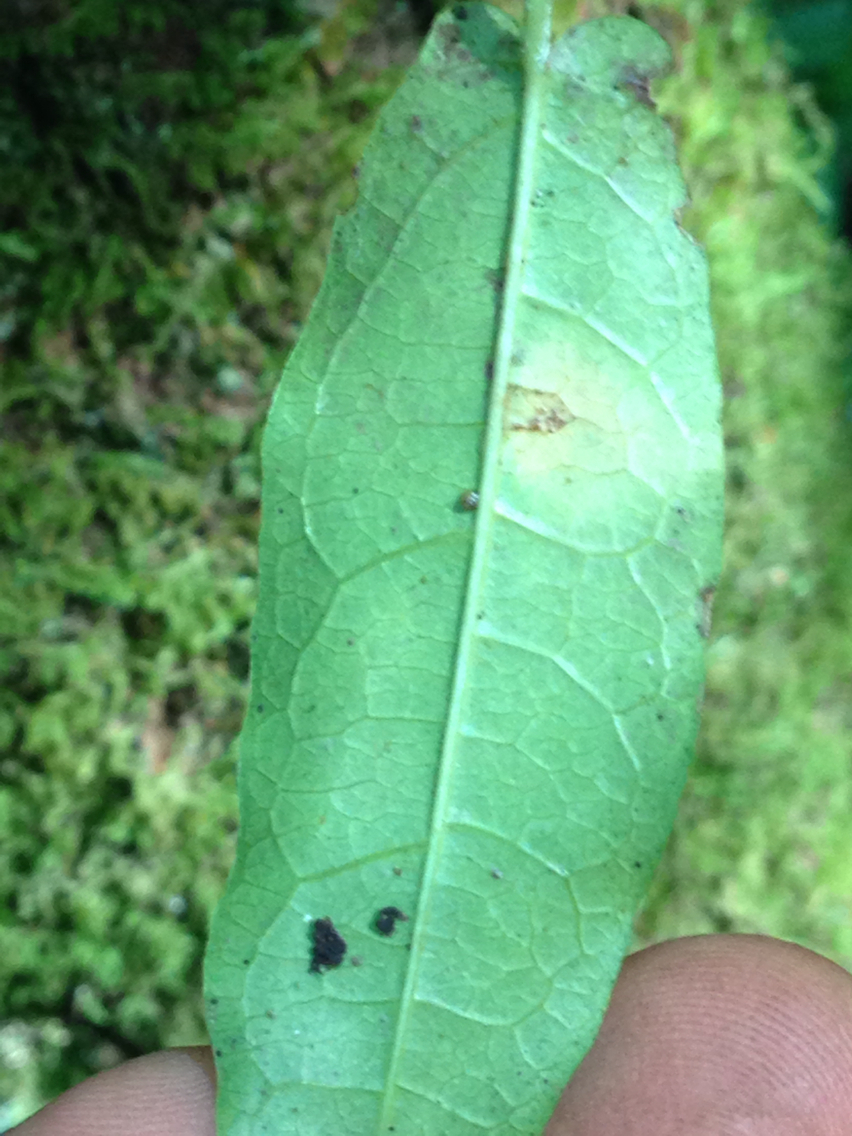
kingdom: Plantae
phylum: Tracheophyta
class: Magnoliopsida
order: Lamiales
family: Bignoniaceae
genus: Bignonia
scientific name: Bignonia capreolata
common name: Crossvine
